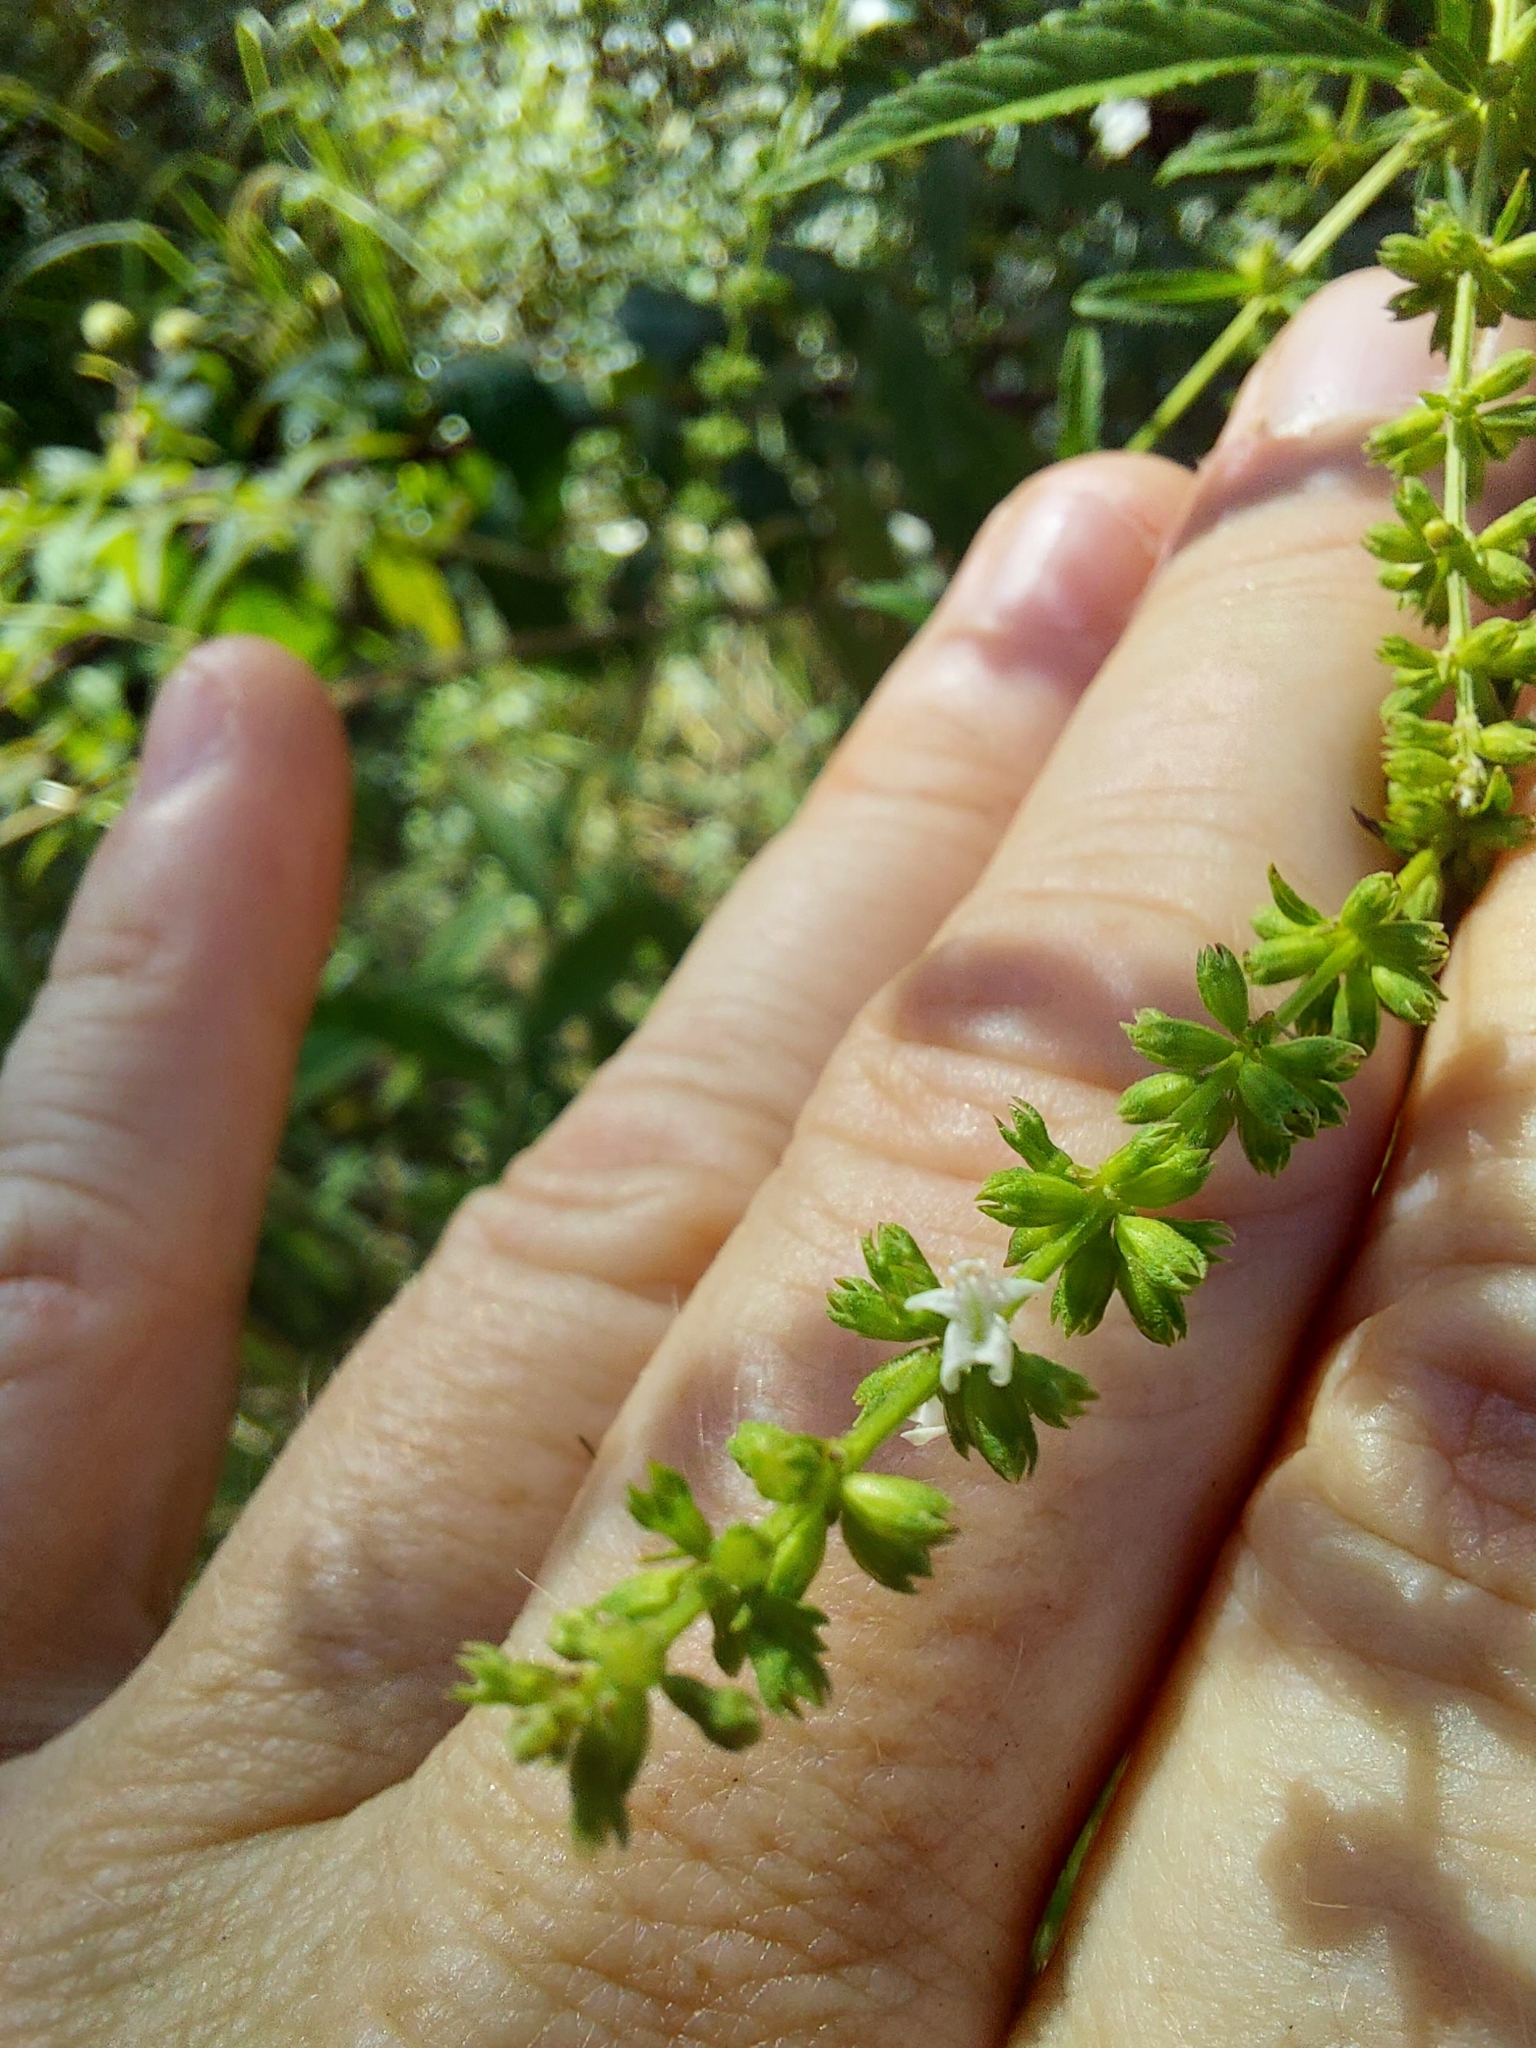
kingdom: Plantae
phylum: Tracheophyta
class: Magnoliopsida
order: Lamiales
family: Lamiaceae
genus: Condea
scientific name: Condea verticillata
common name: John charles
